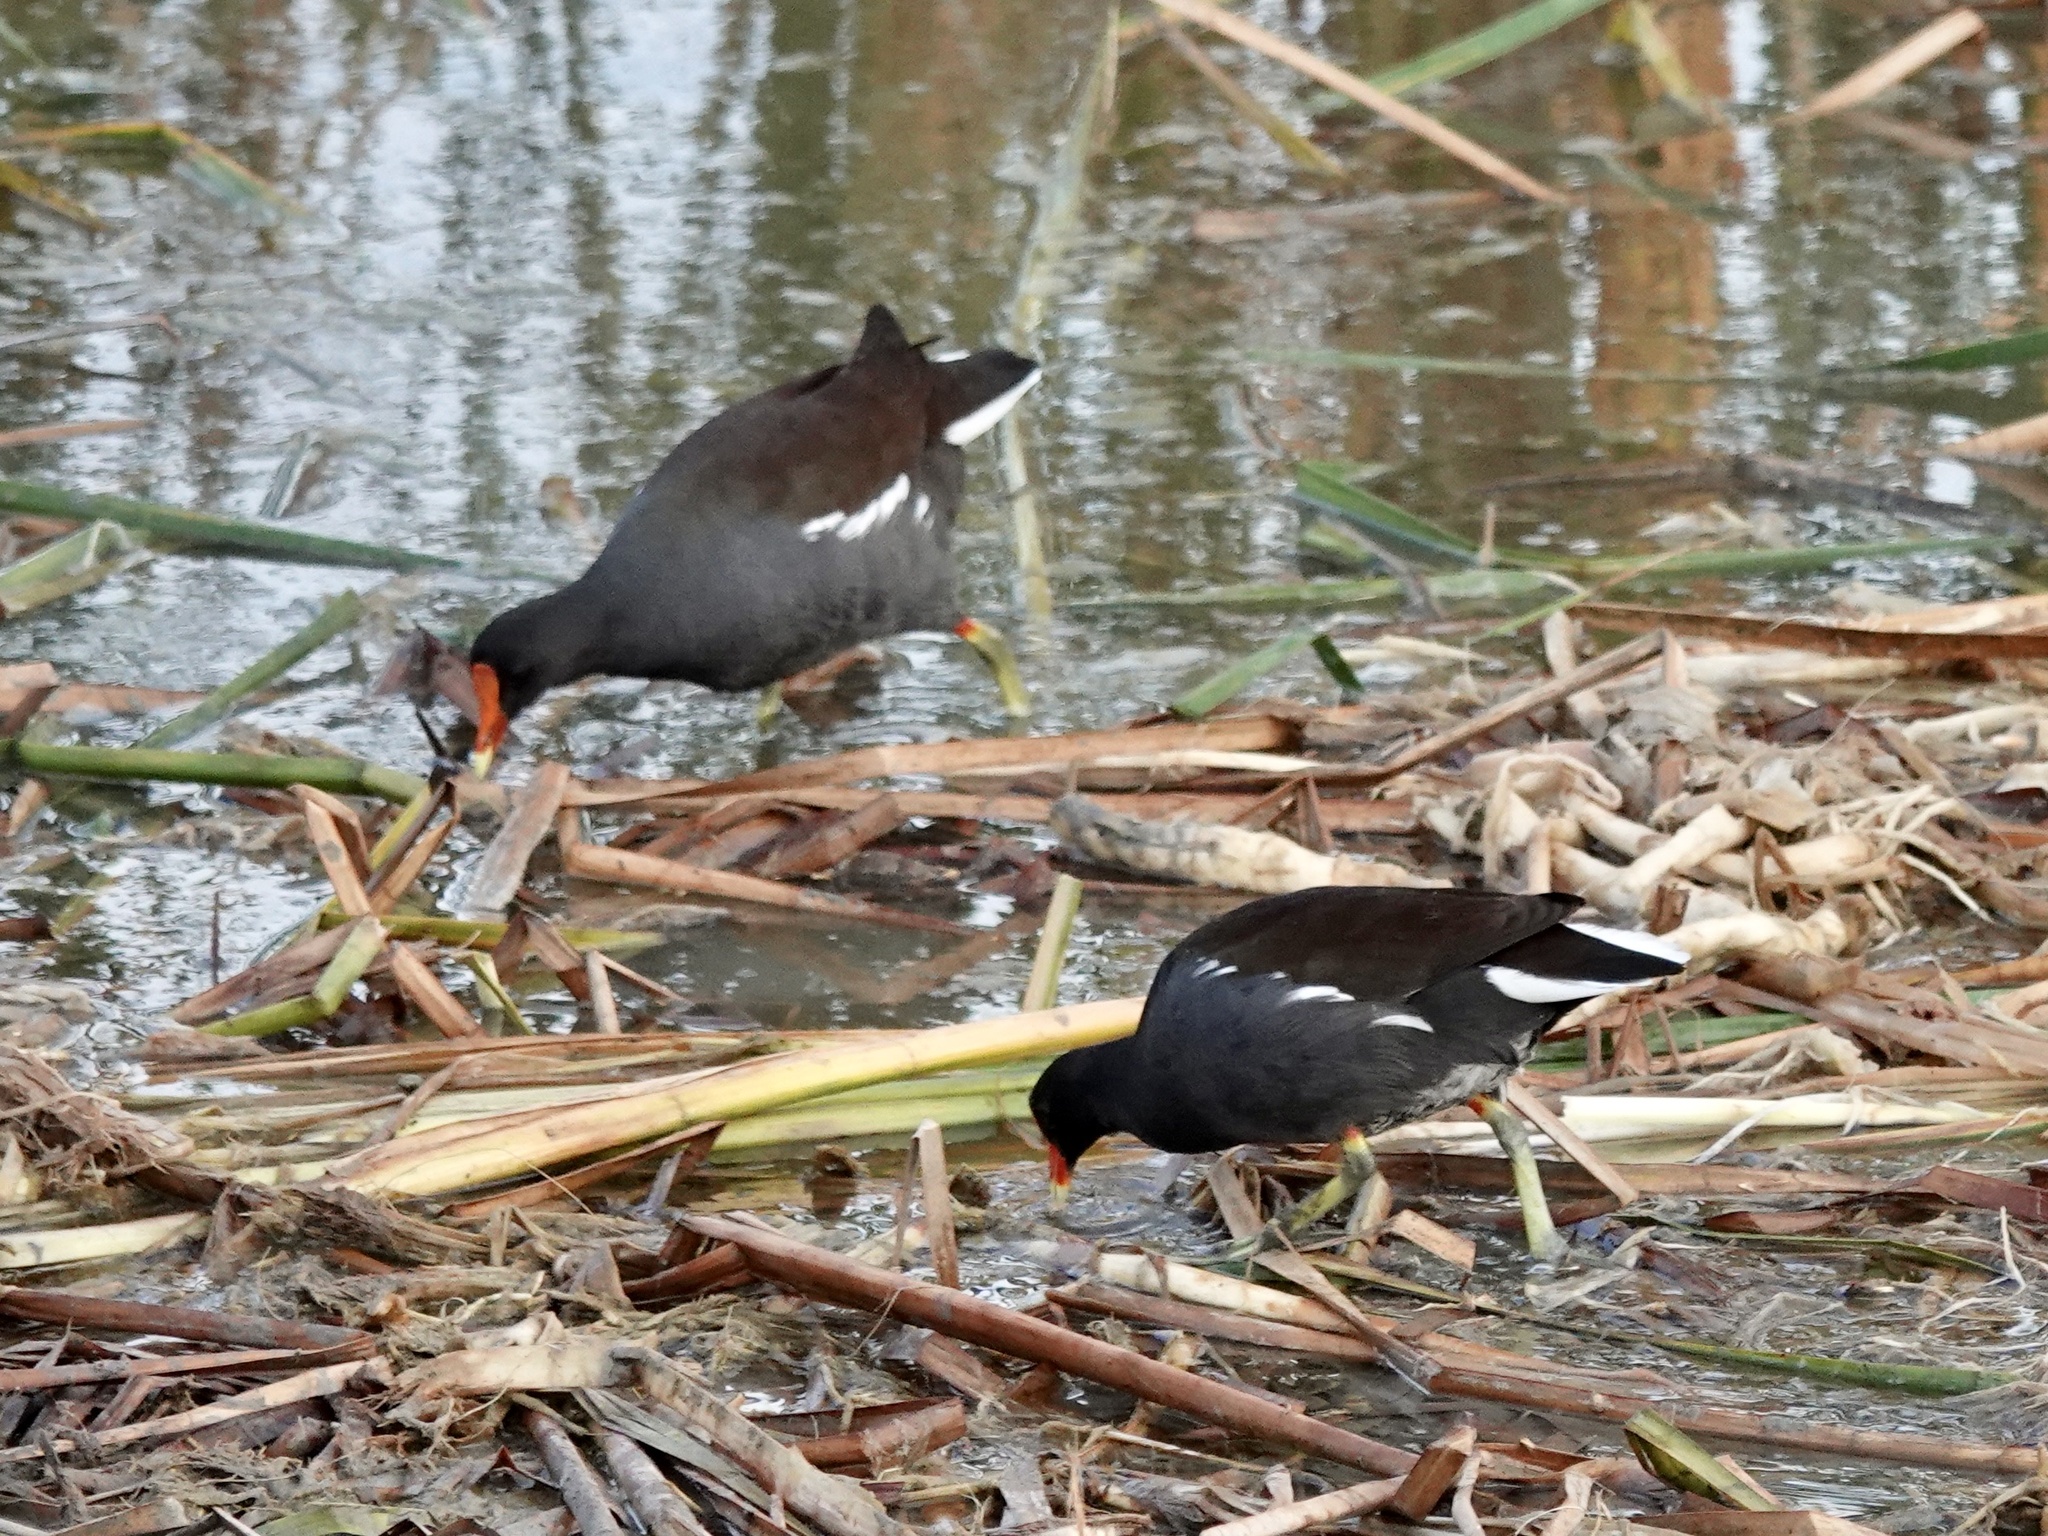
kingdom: Animalia
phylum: Chordata
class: Aves
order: Gruiformes
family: Rallidae
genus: Gallinula
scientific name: Gallinula chloropus
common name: Common moorhen
